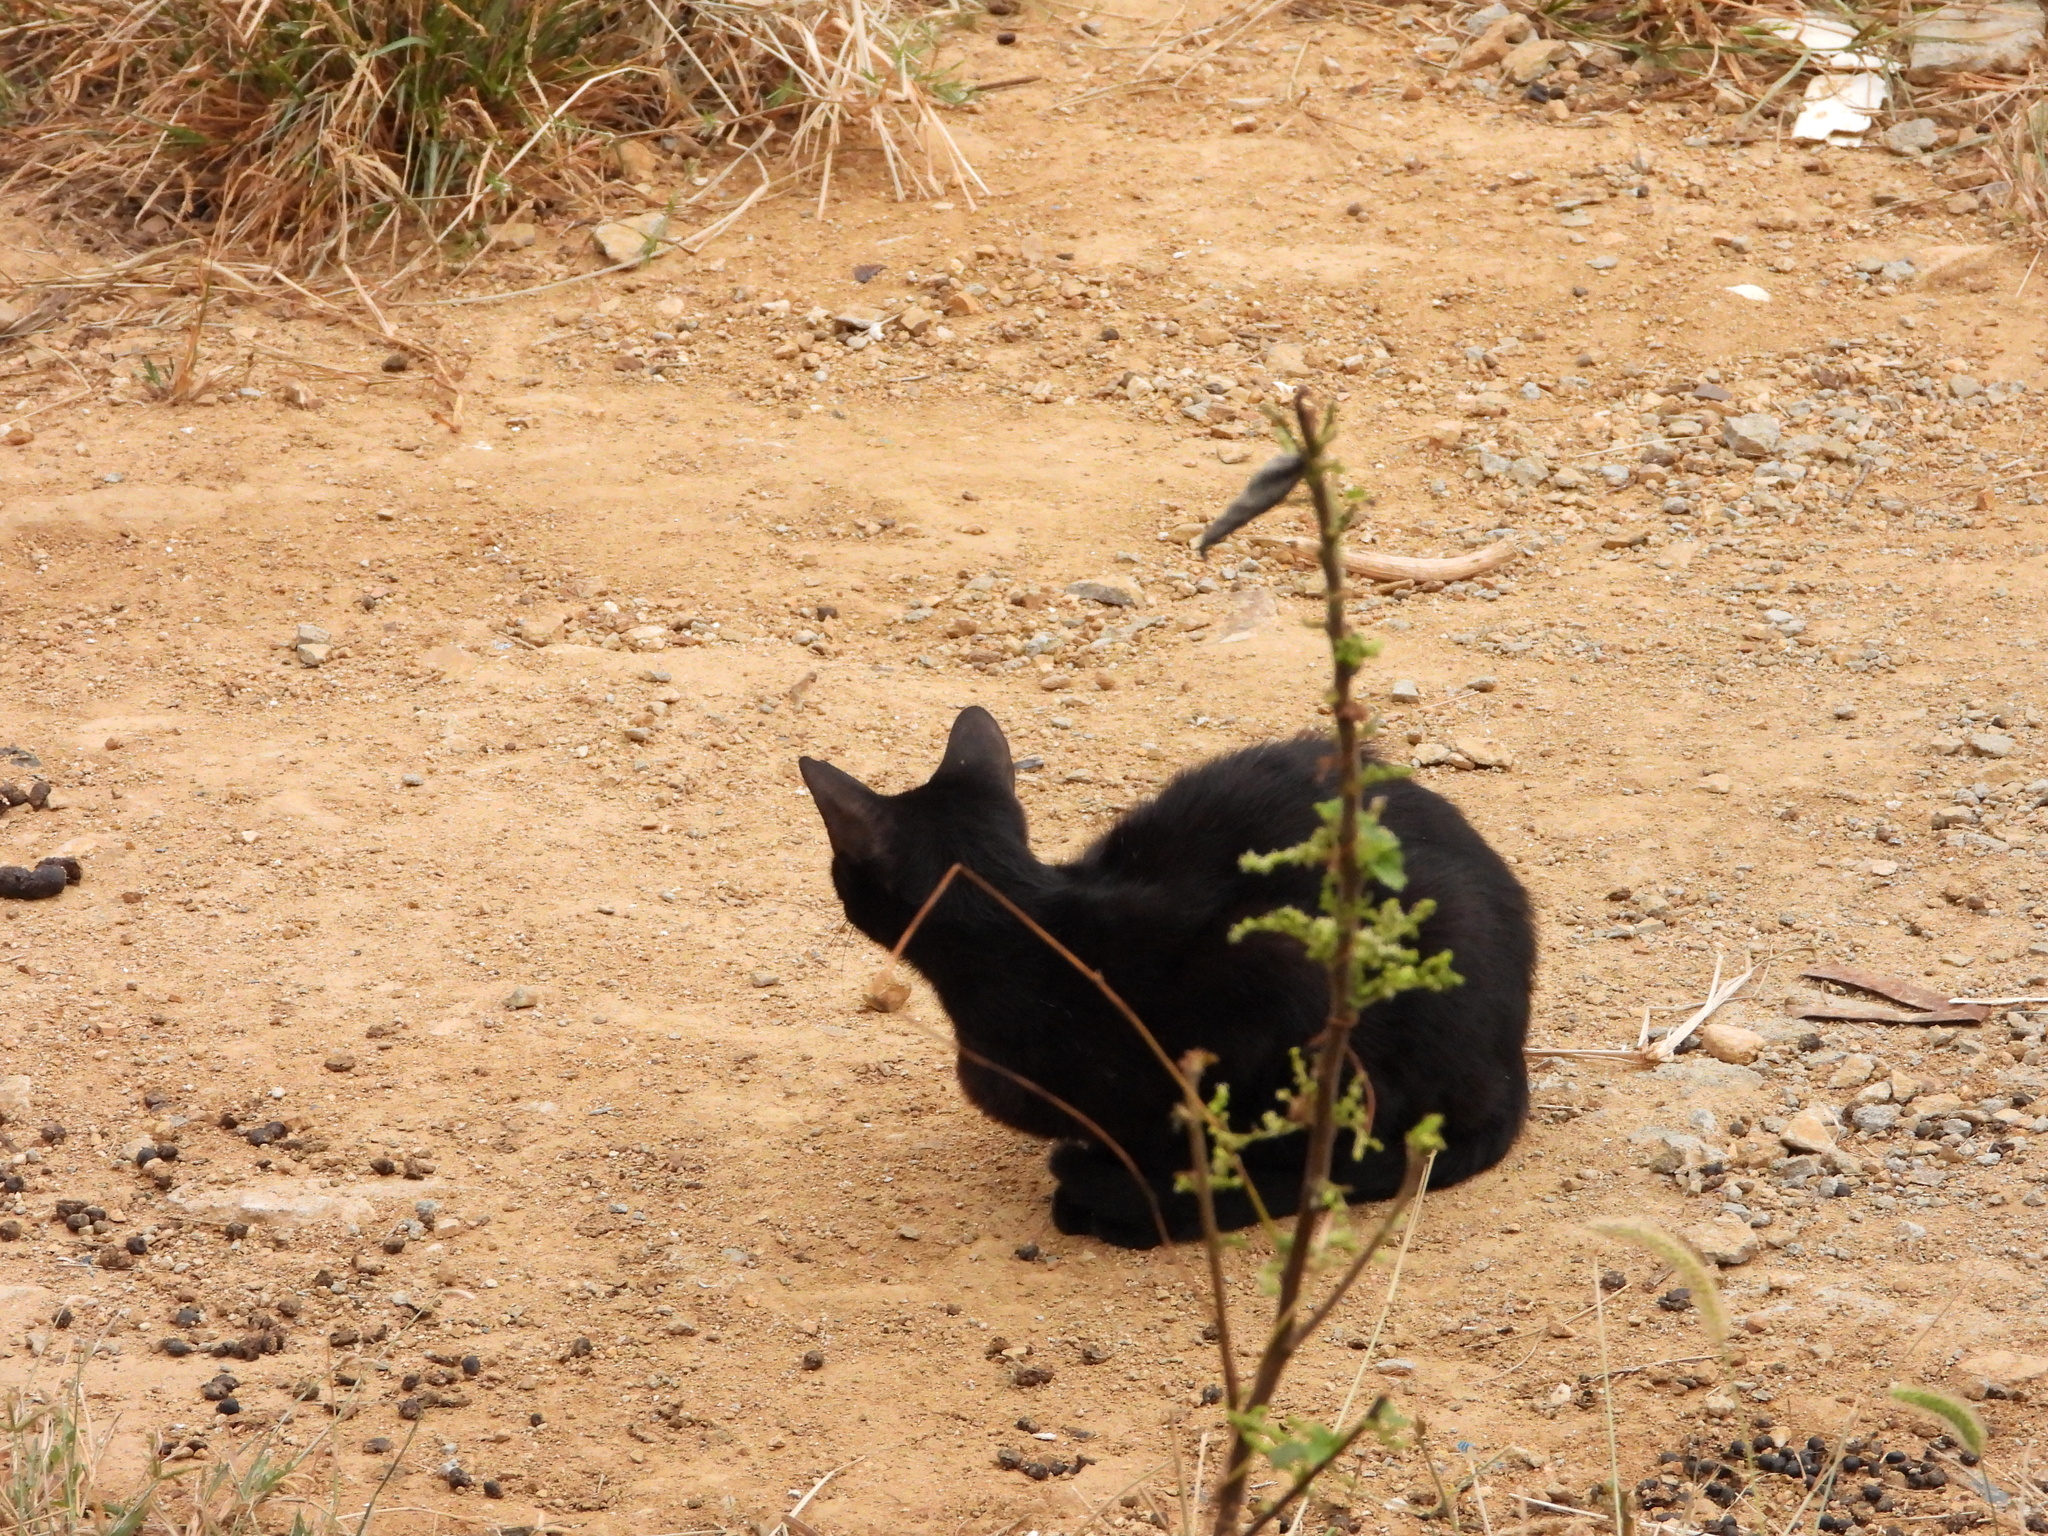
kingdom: Animalia
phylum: Chordata
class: Mammalia
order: Carnivora
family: Felidae
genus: Felis
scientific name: Felis catus
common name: Domestic cat
